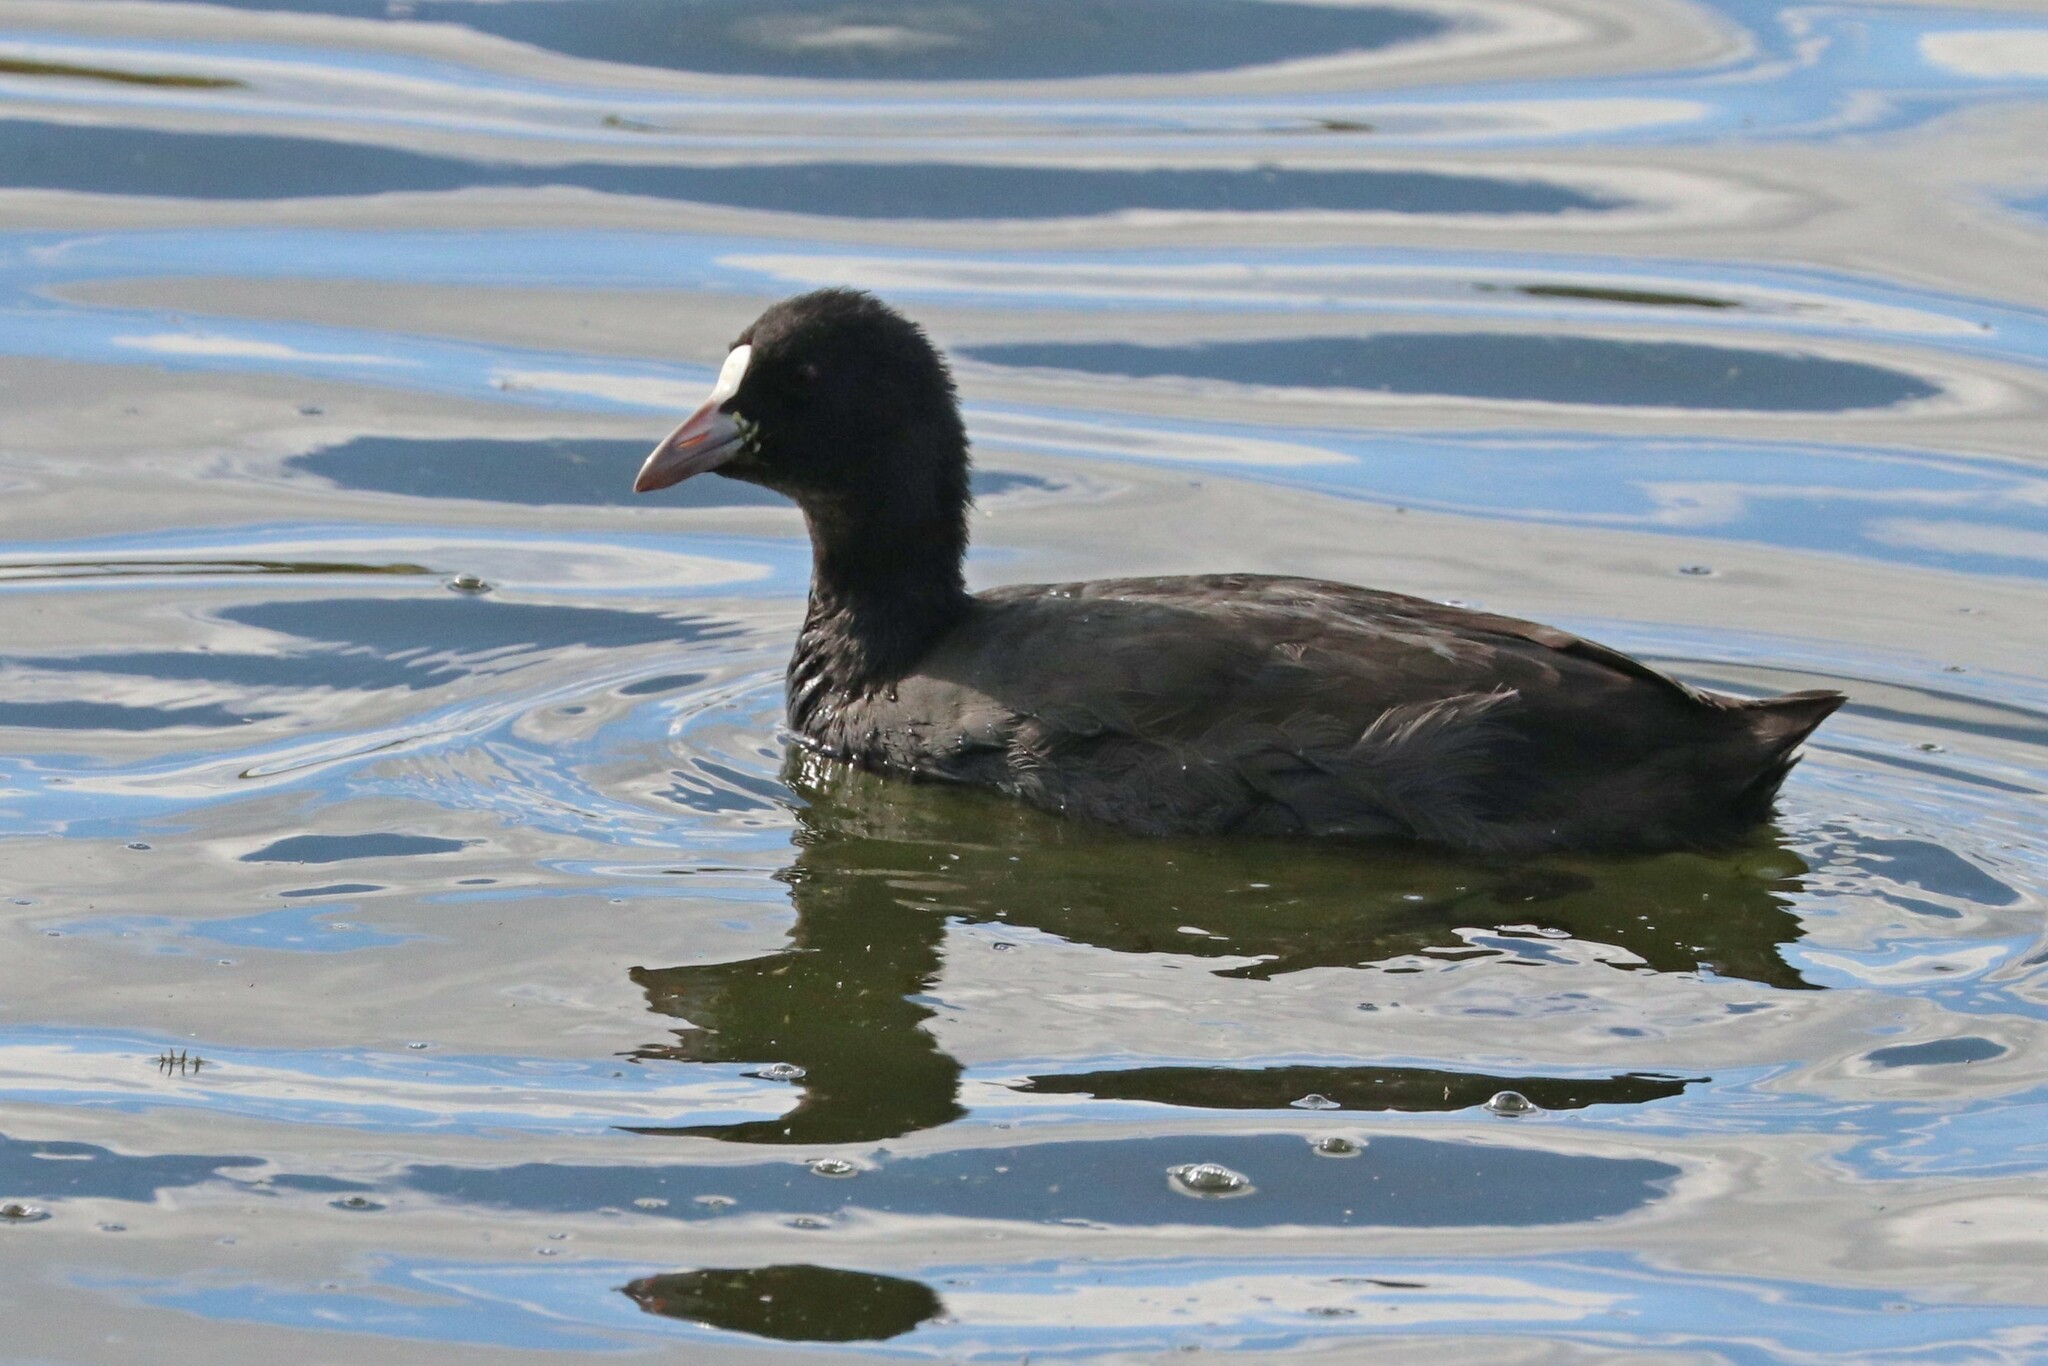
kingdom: Animalia
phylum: Chordata
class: Aves
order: Gruiformes
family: Rallidae
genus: Fulica
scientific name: Fulica atra
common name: Eurasian coot
